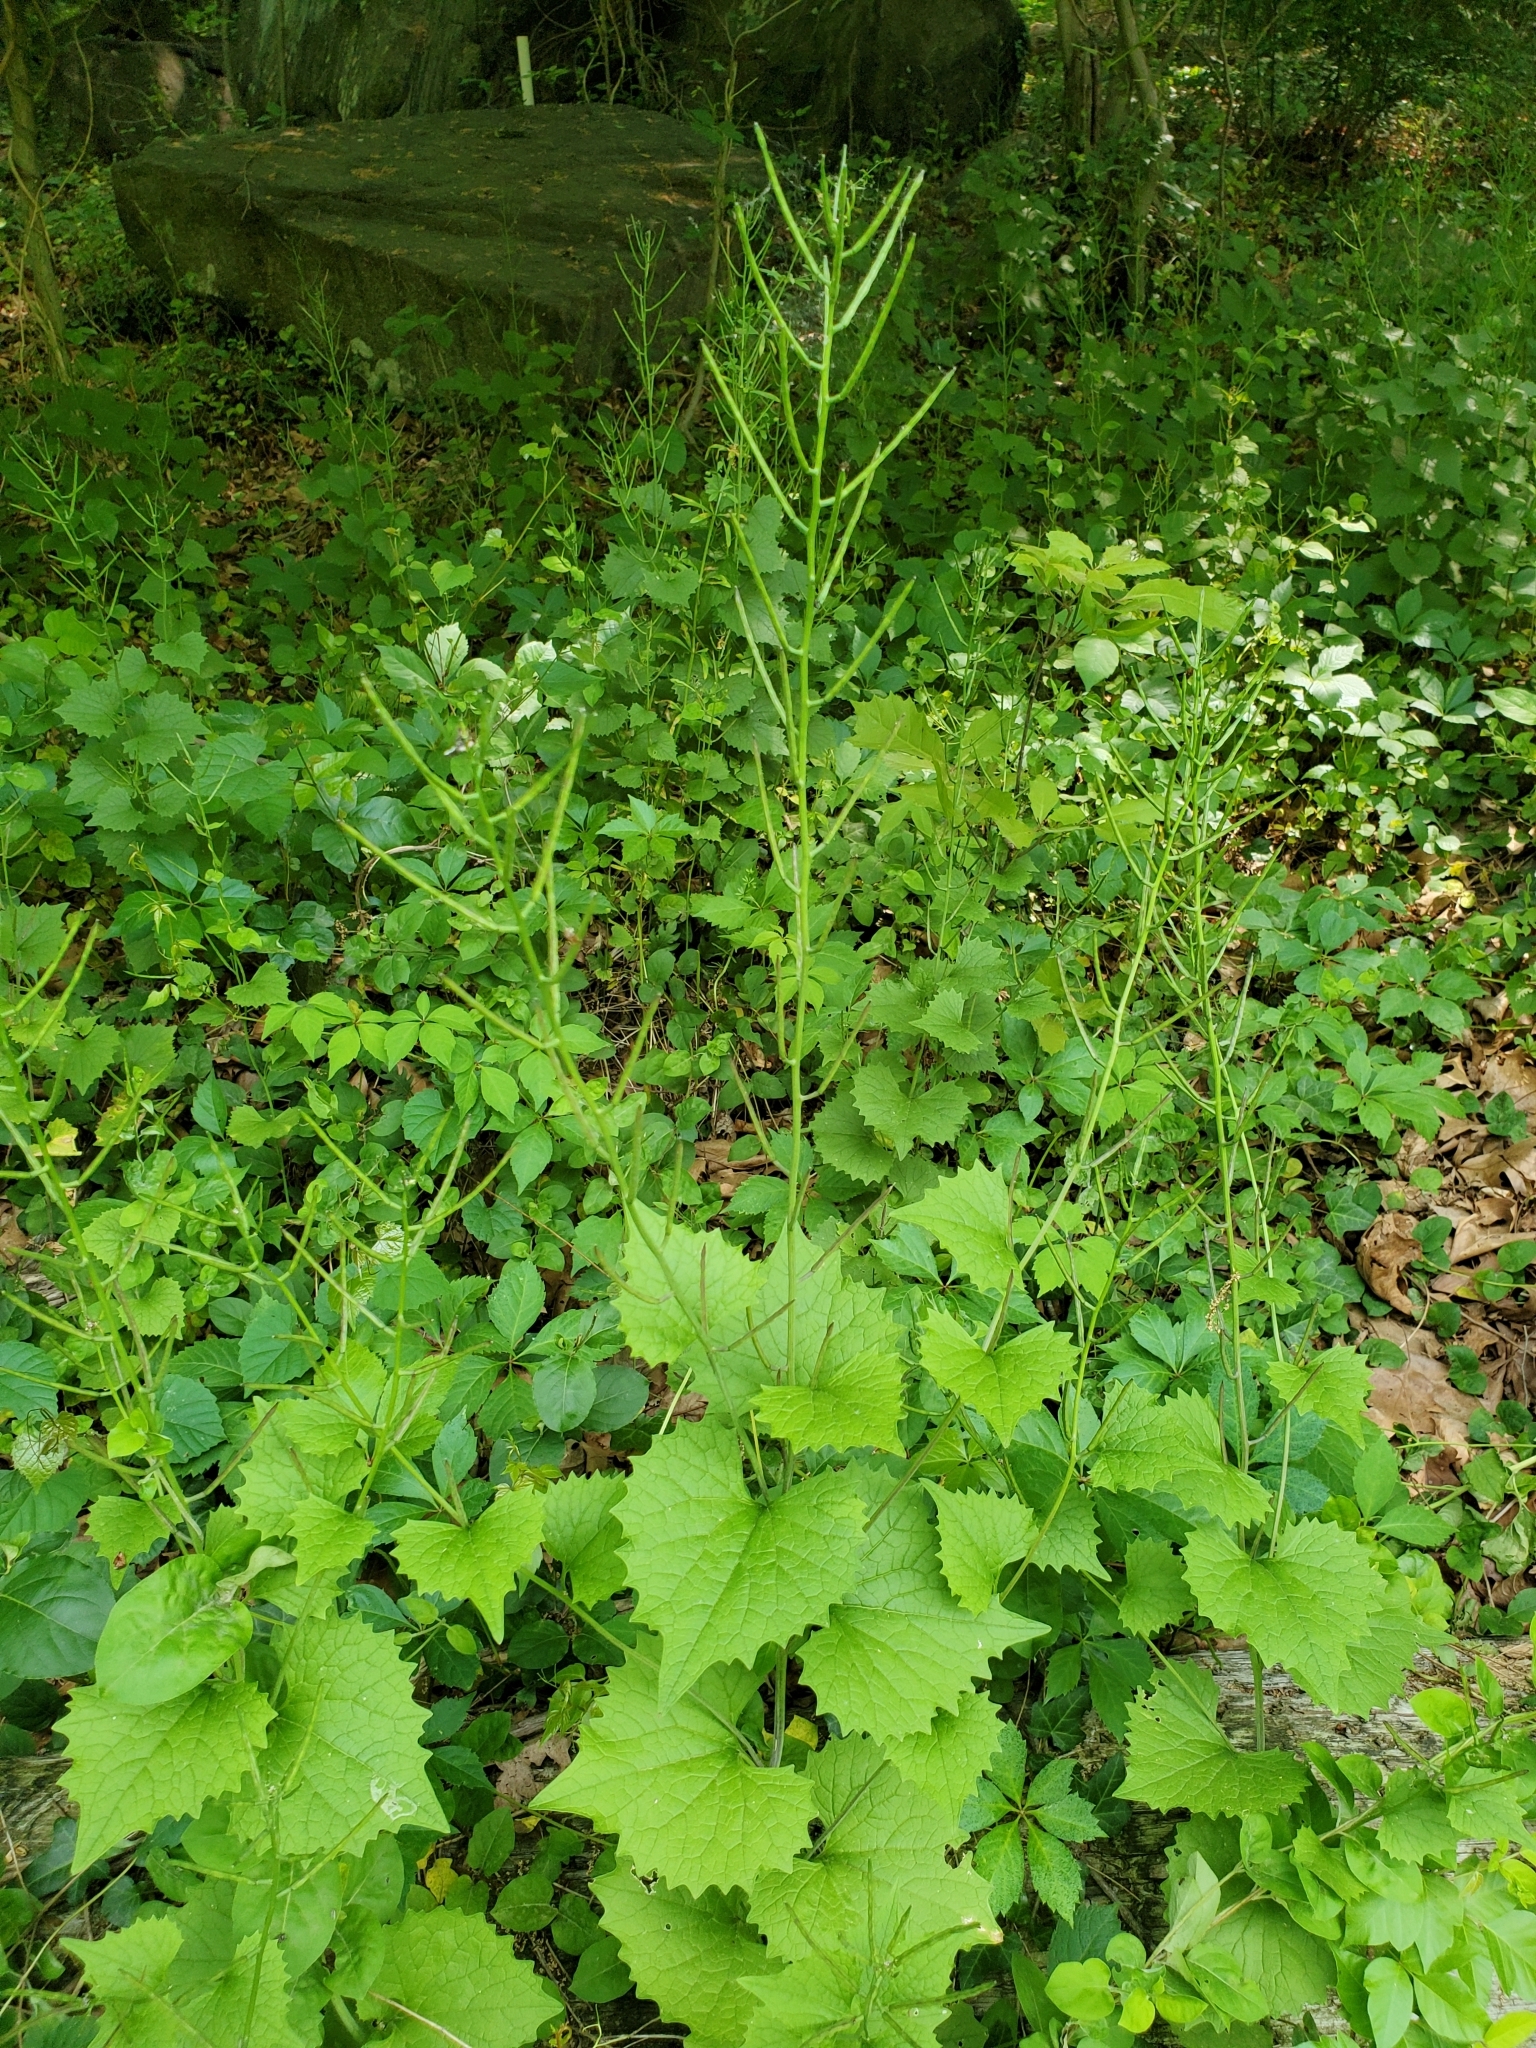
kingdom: Plantae
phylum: Tracheophyta
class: Magnoliopsida
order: Brassicales
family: Brassicaceae
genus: Alliaria
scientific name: Alliaria petiolata
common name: Garlic mustard
